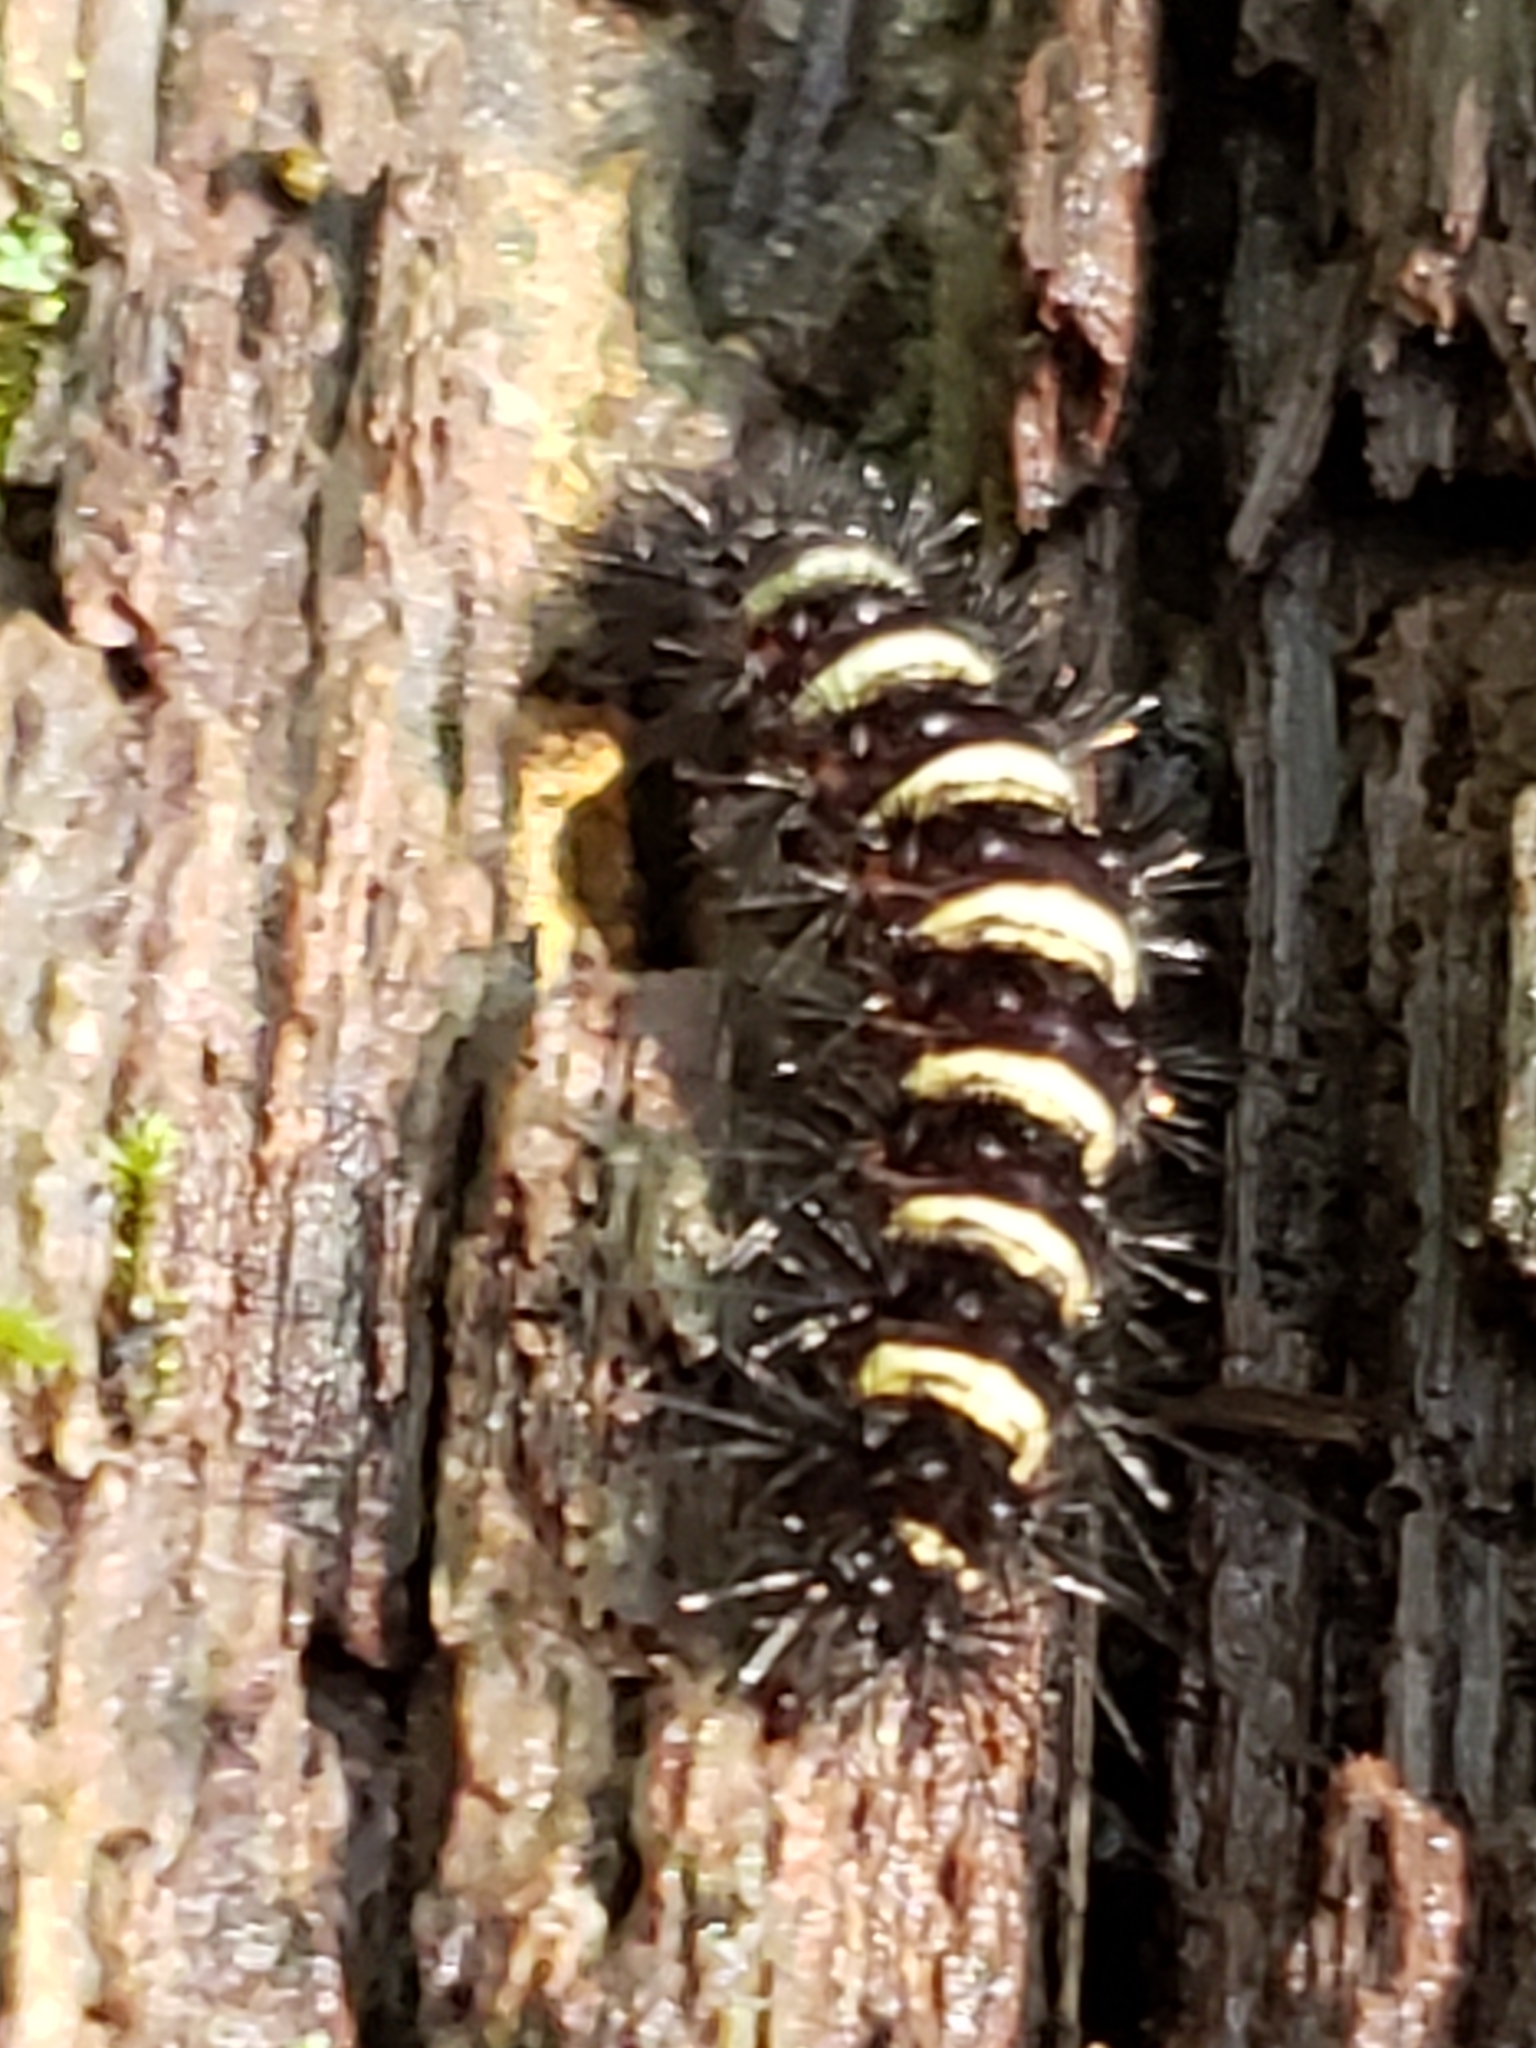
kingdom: Animalia
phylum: Arthropoda
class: Insecta
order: Lepidoptera
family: Erebidae
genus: Spilosoma
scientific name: Spilosoma congrua
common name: Agreeable tiger moth
